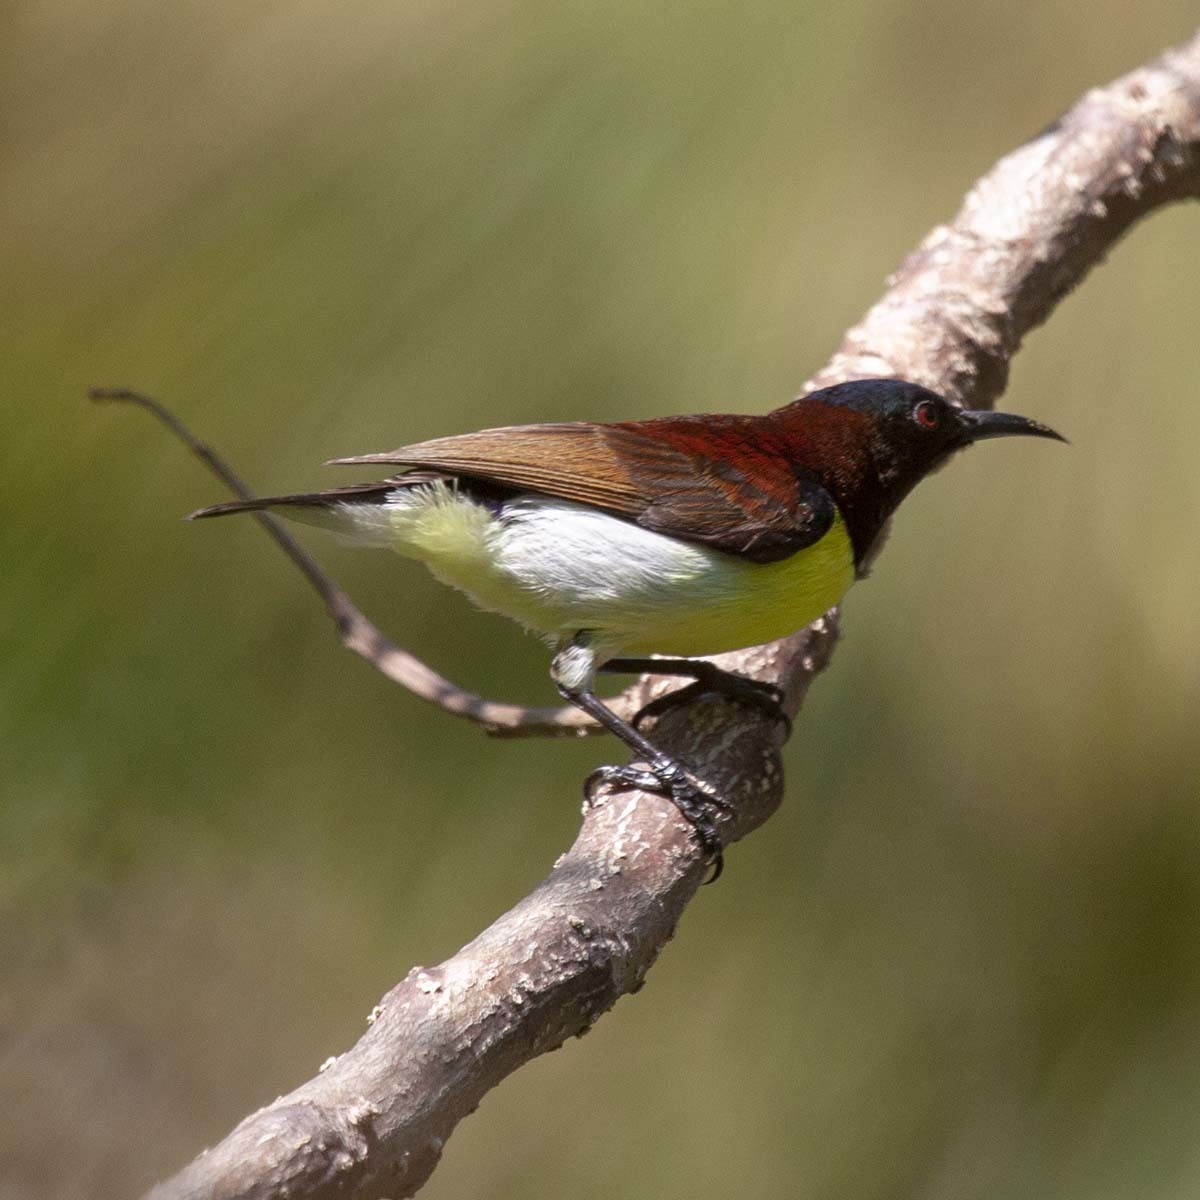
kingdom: Animalia
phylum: Chordata
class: Aves
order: Passeriformes
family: Nectariniidae
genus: Leptocoma
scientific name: Leptocoma zeylonica
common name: Purple-rumped sunbird
